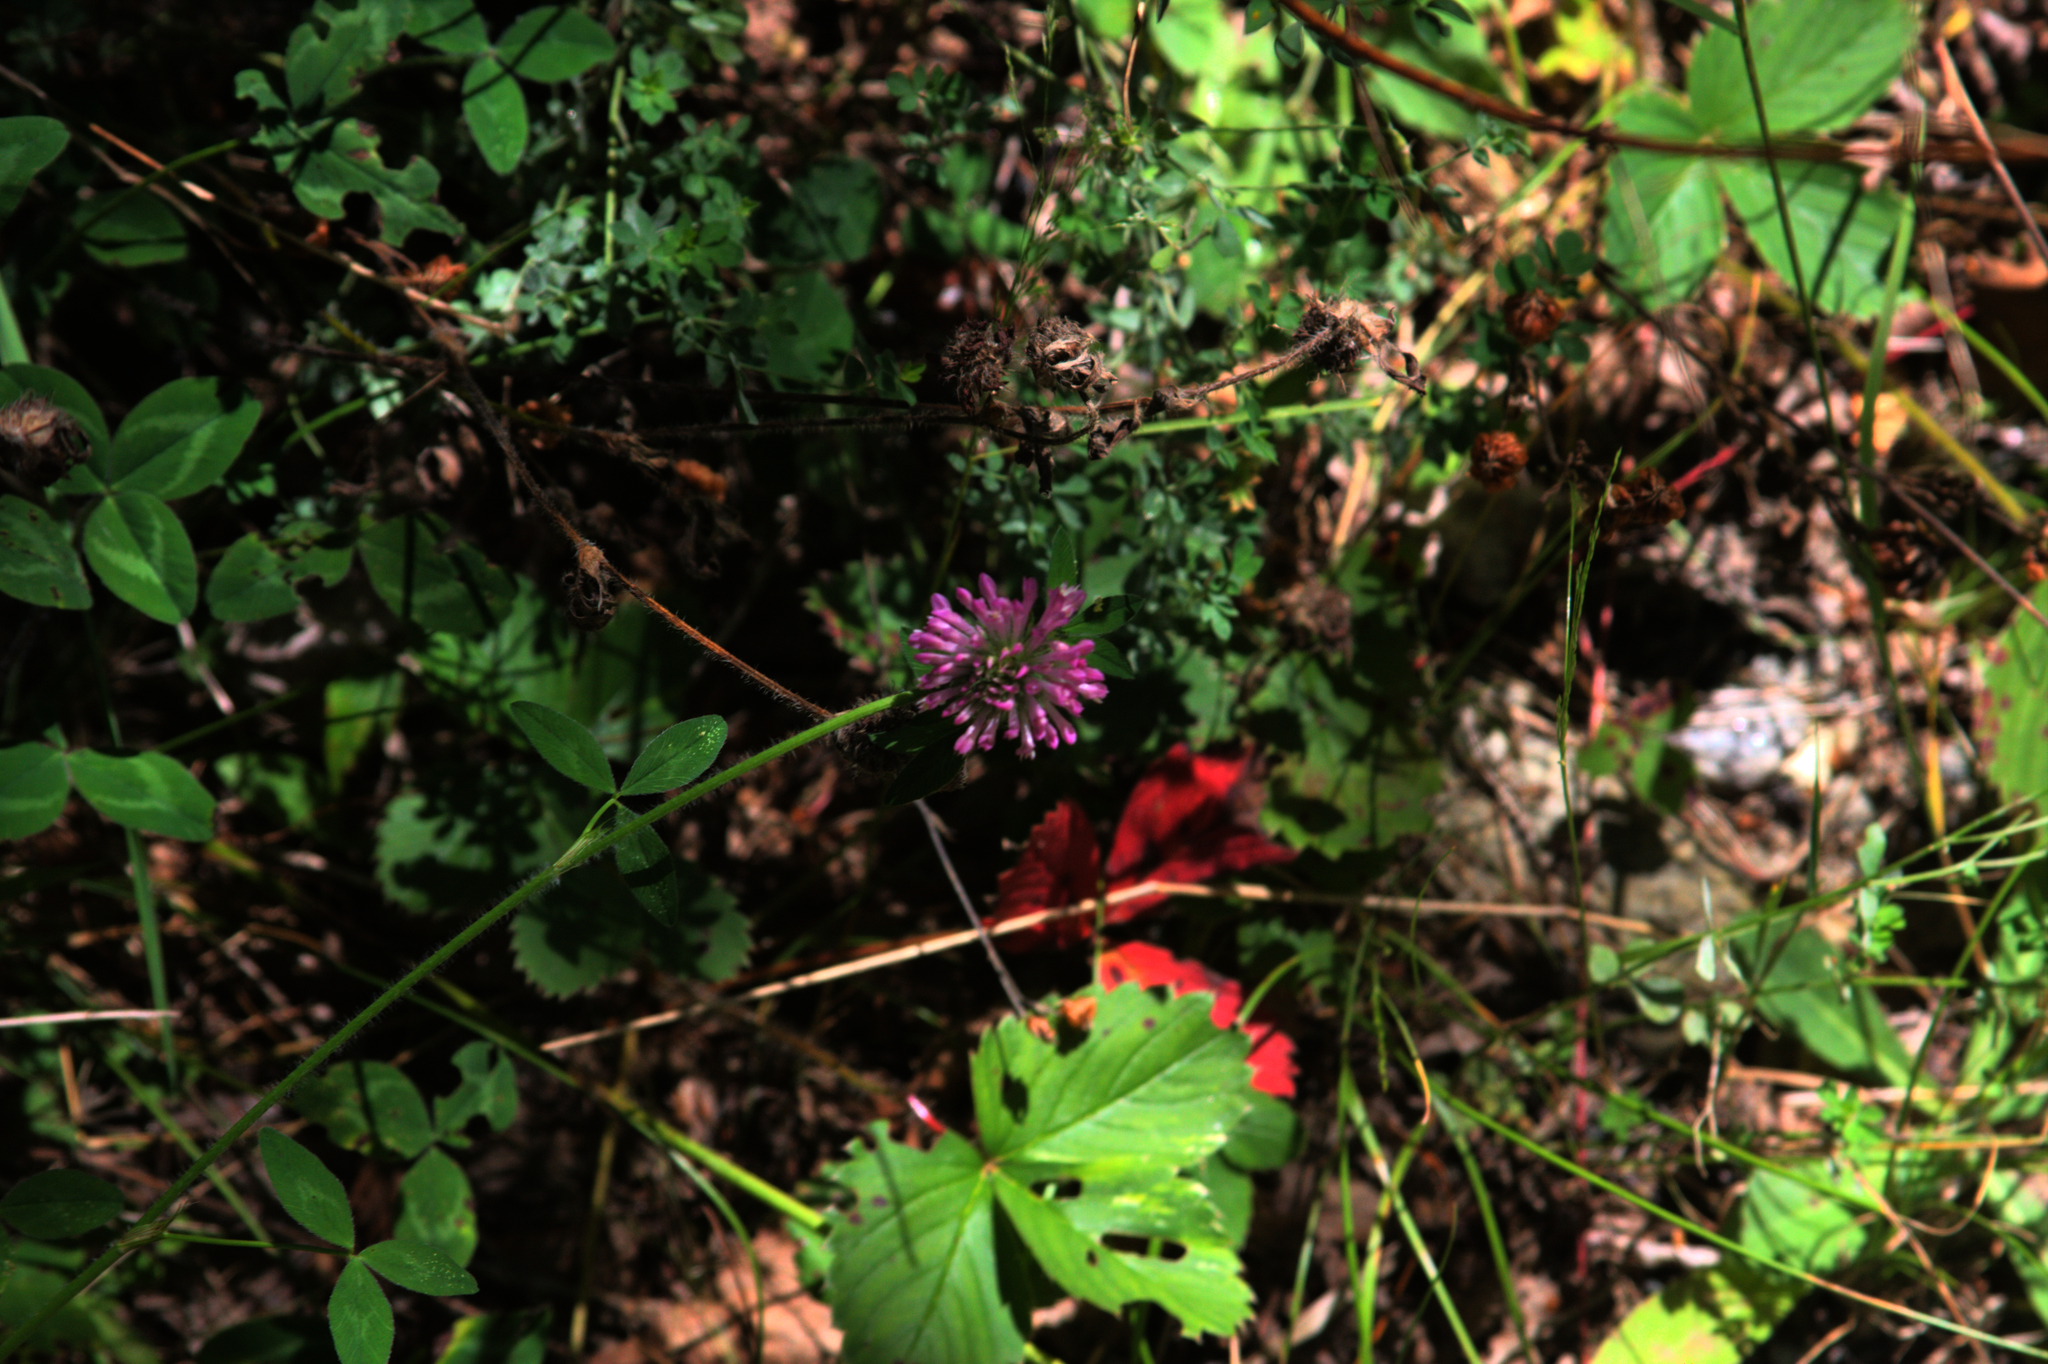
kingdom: Plantae
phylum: Tracheophyta
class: Magnoliopsida
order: Fabales
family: Fabaceae
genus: Trifolium
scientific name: Trifolium pratense
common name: Red clover
